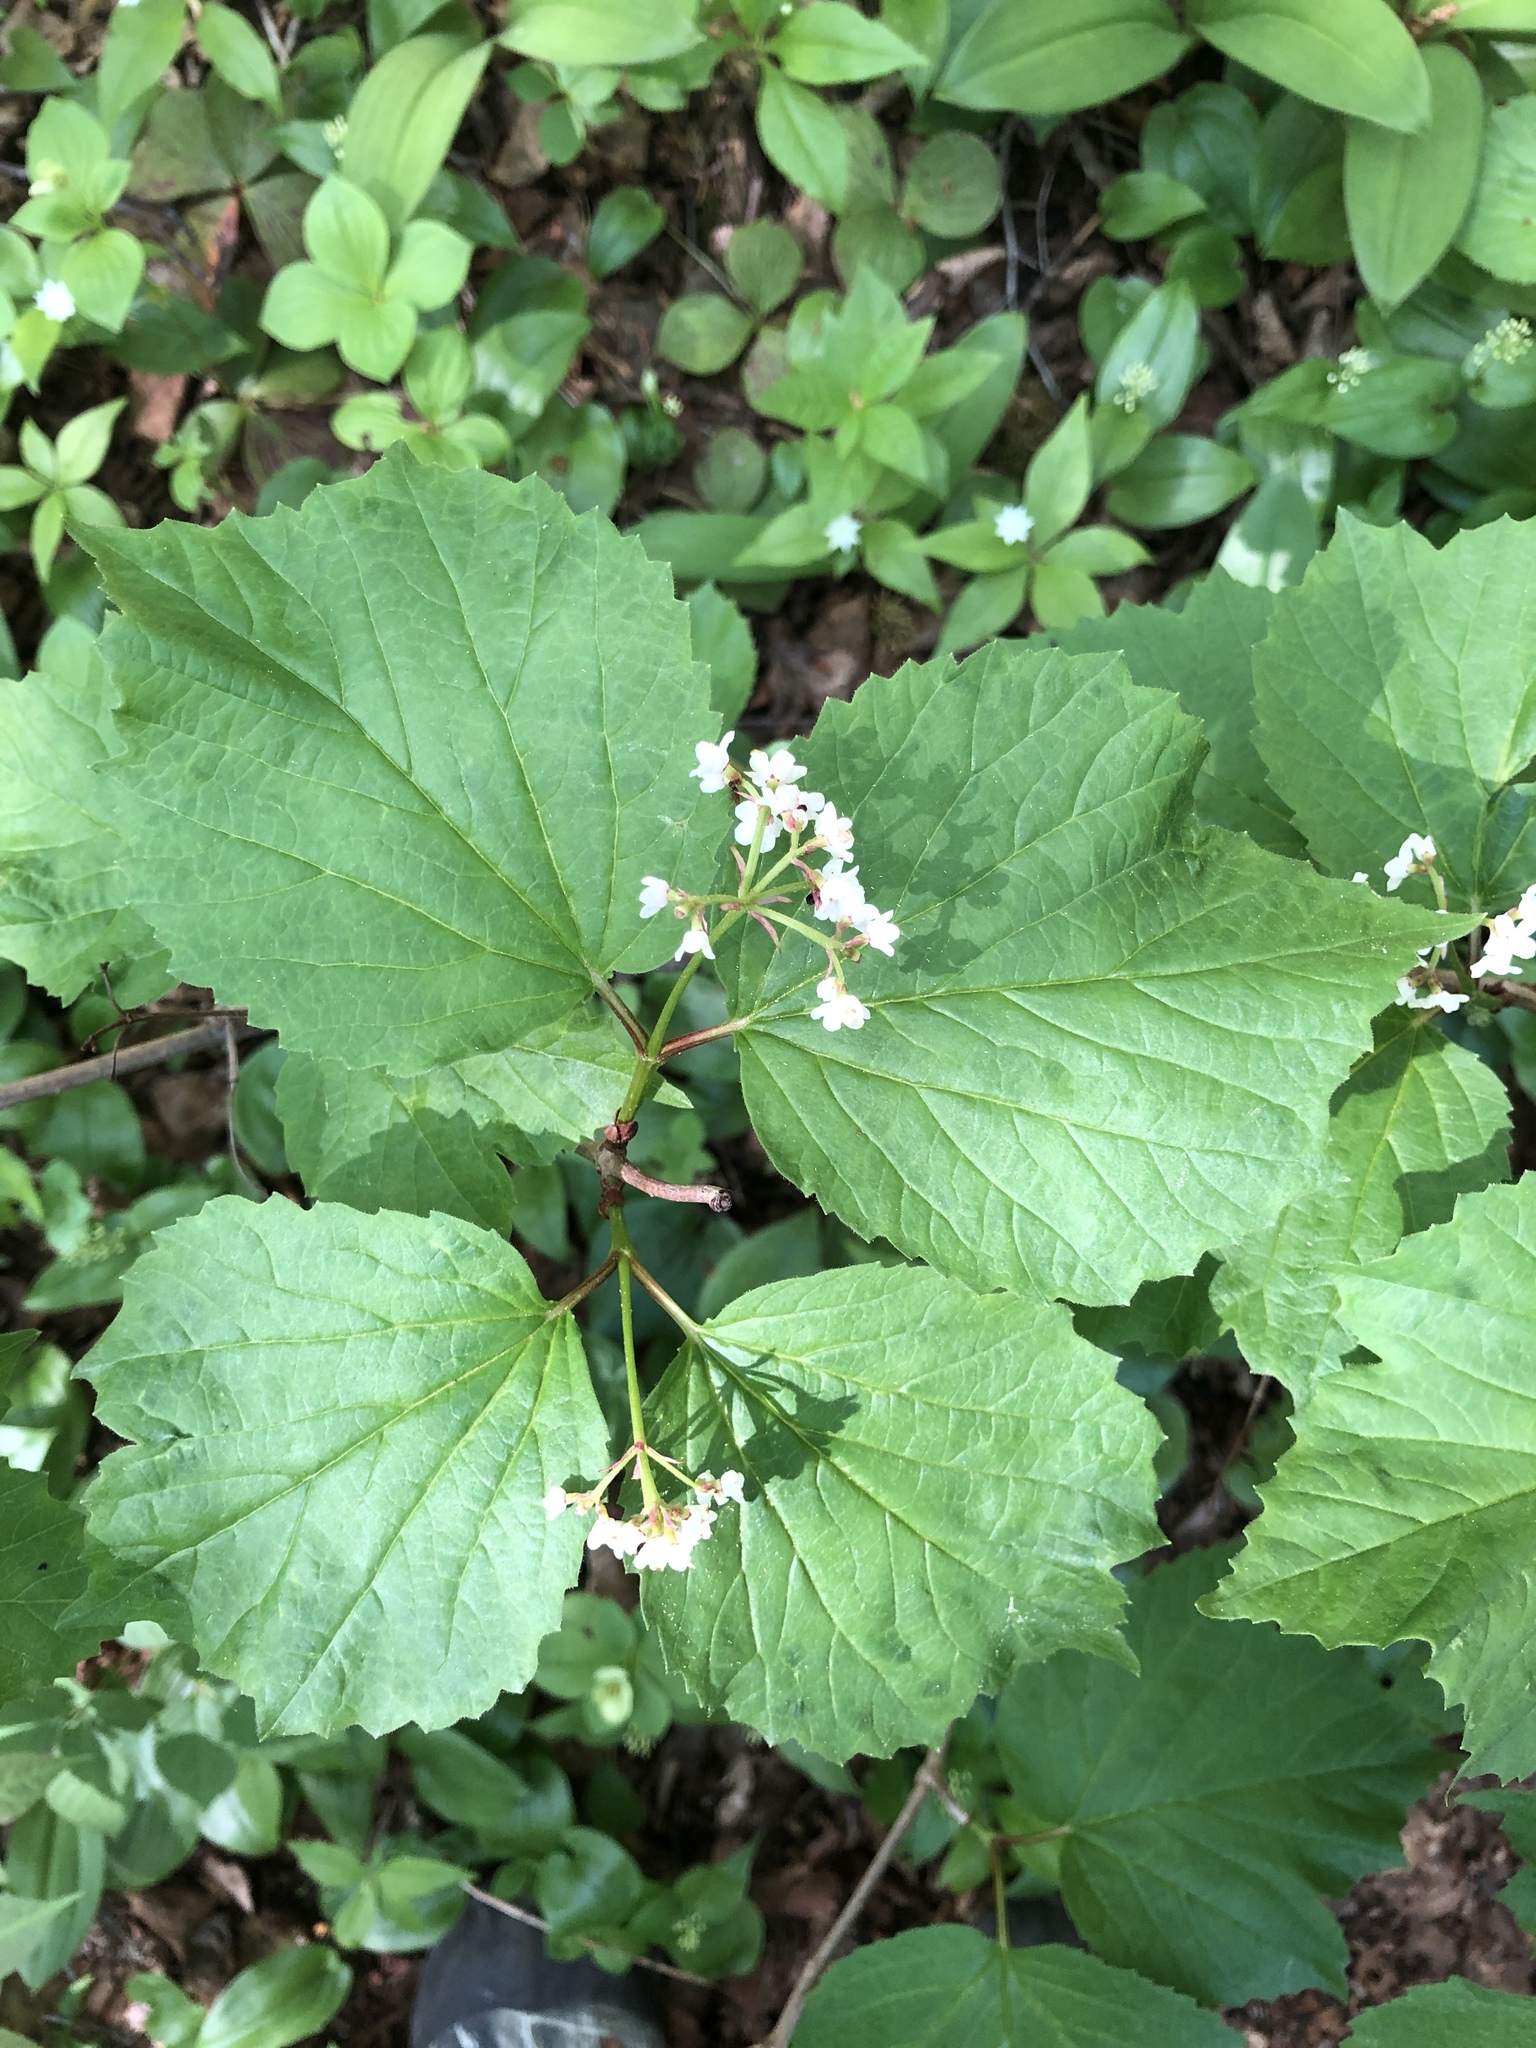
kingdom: Plantae
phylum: Tracheophyta
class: Magnoliopsida
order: Dipsacales
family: Viburnaceae
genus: Viburnum
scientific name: Viburnum edule
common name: Mooseberry
